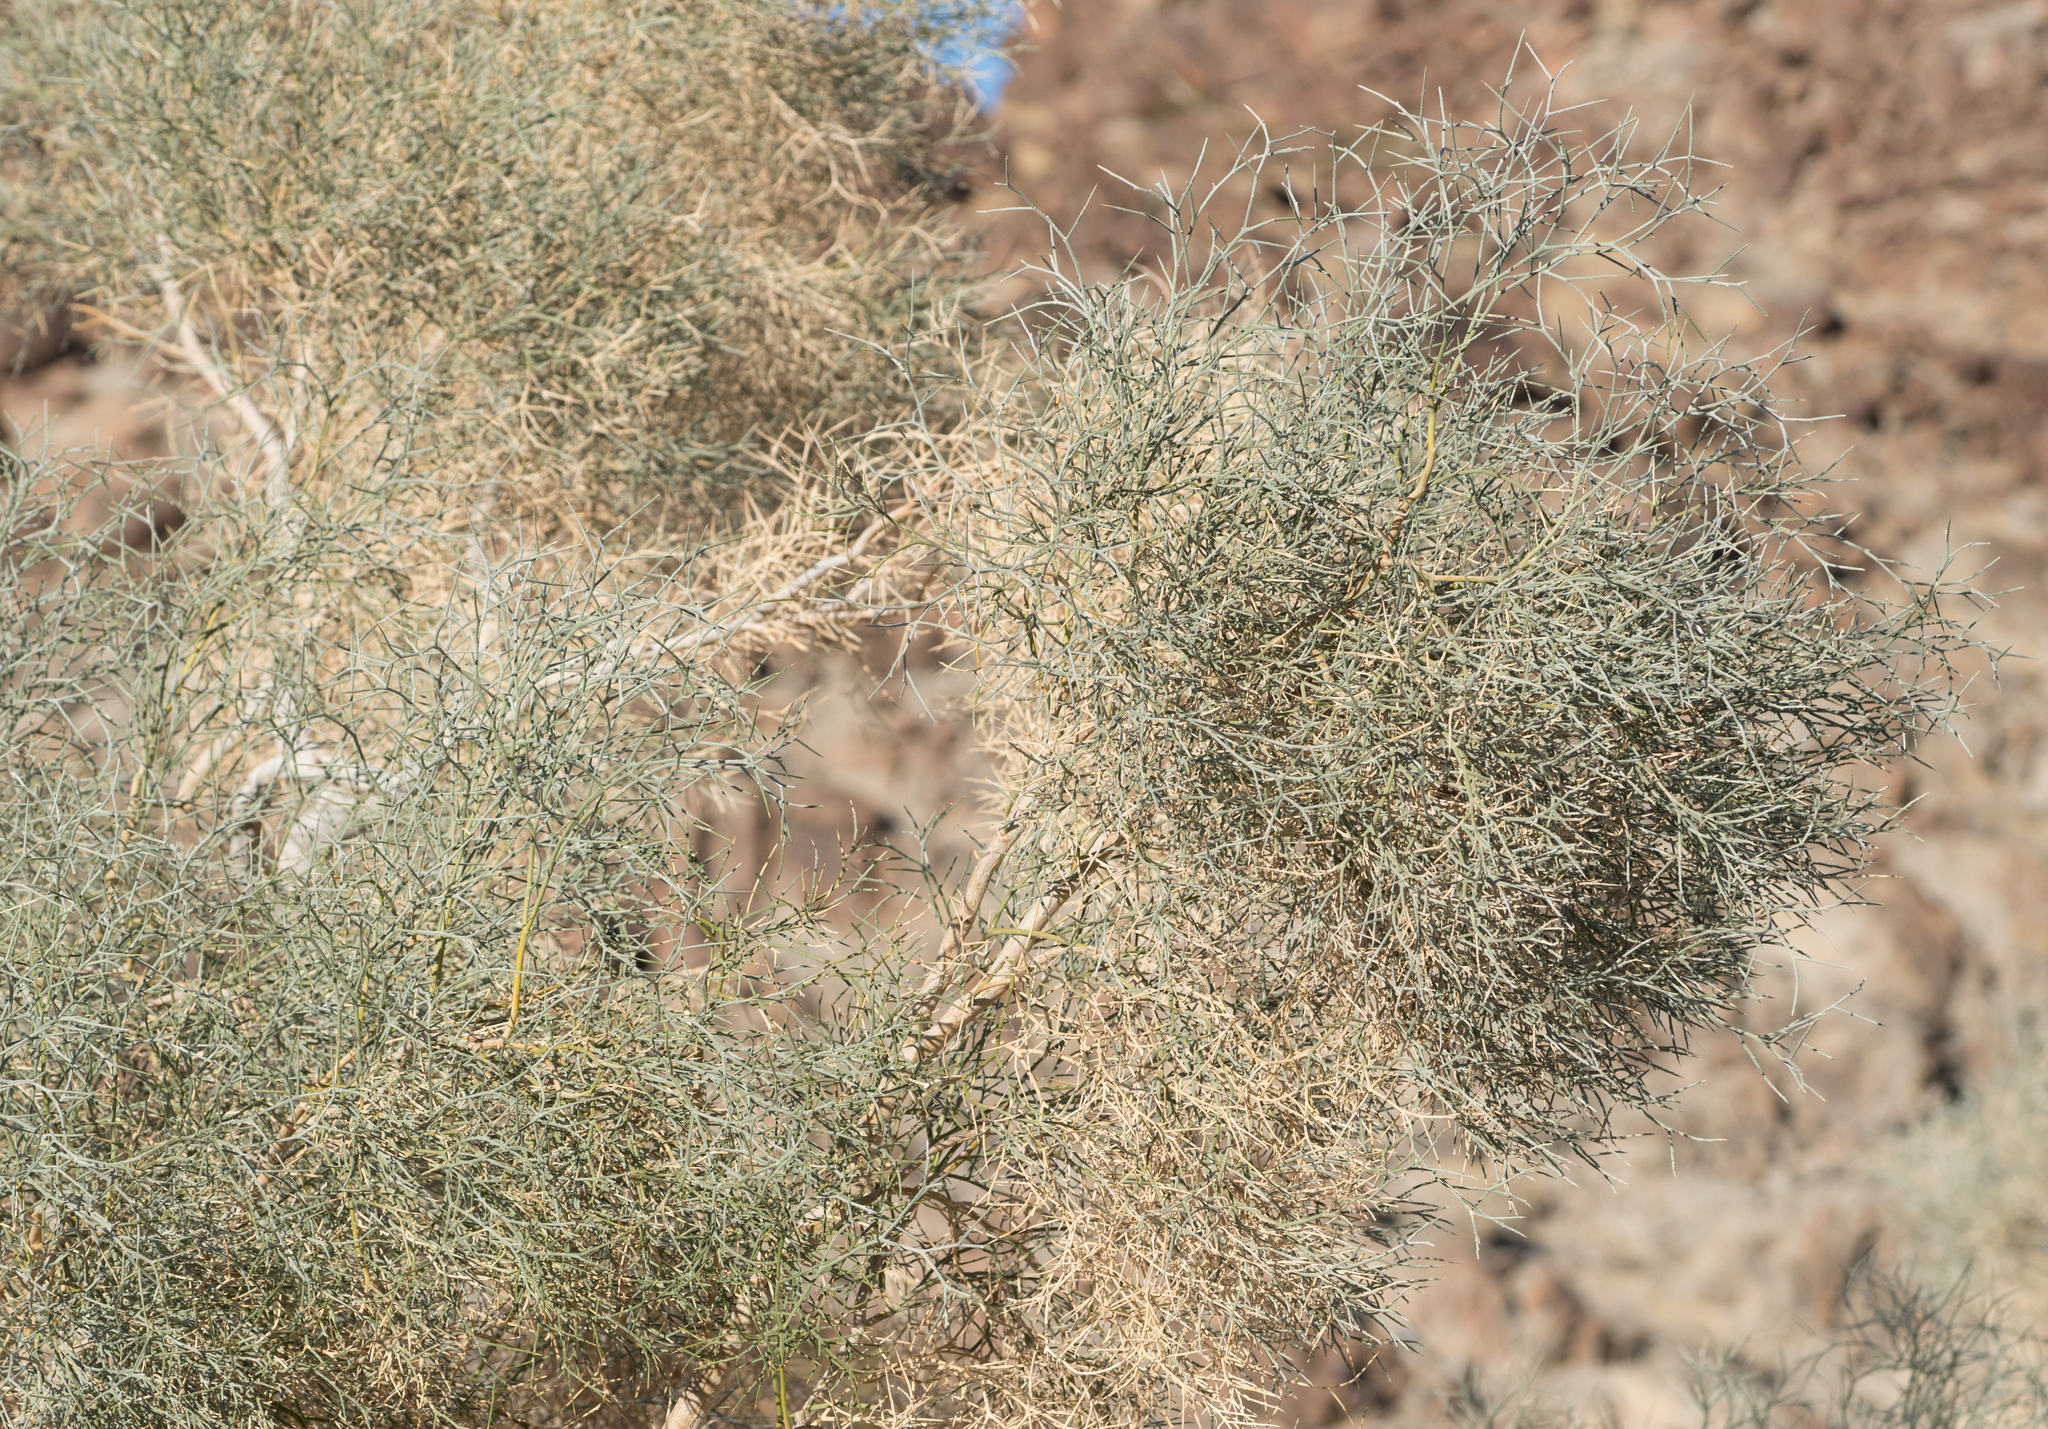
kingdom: Plantae
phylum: Tracheophyta
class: Magnoliopsida
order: Fabales
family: Fabaceae
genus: Psorothamnus
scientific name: Psorothamnus spinosus
